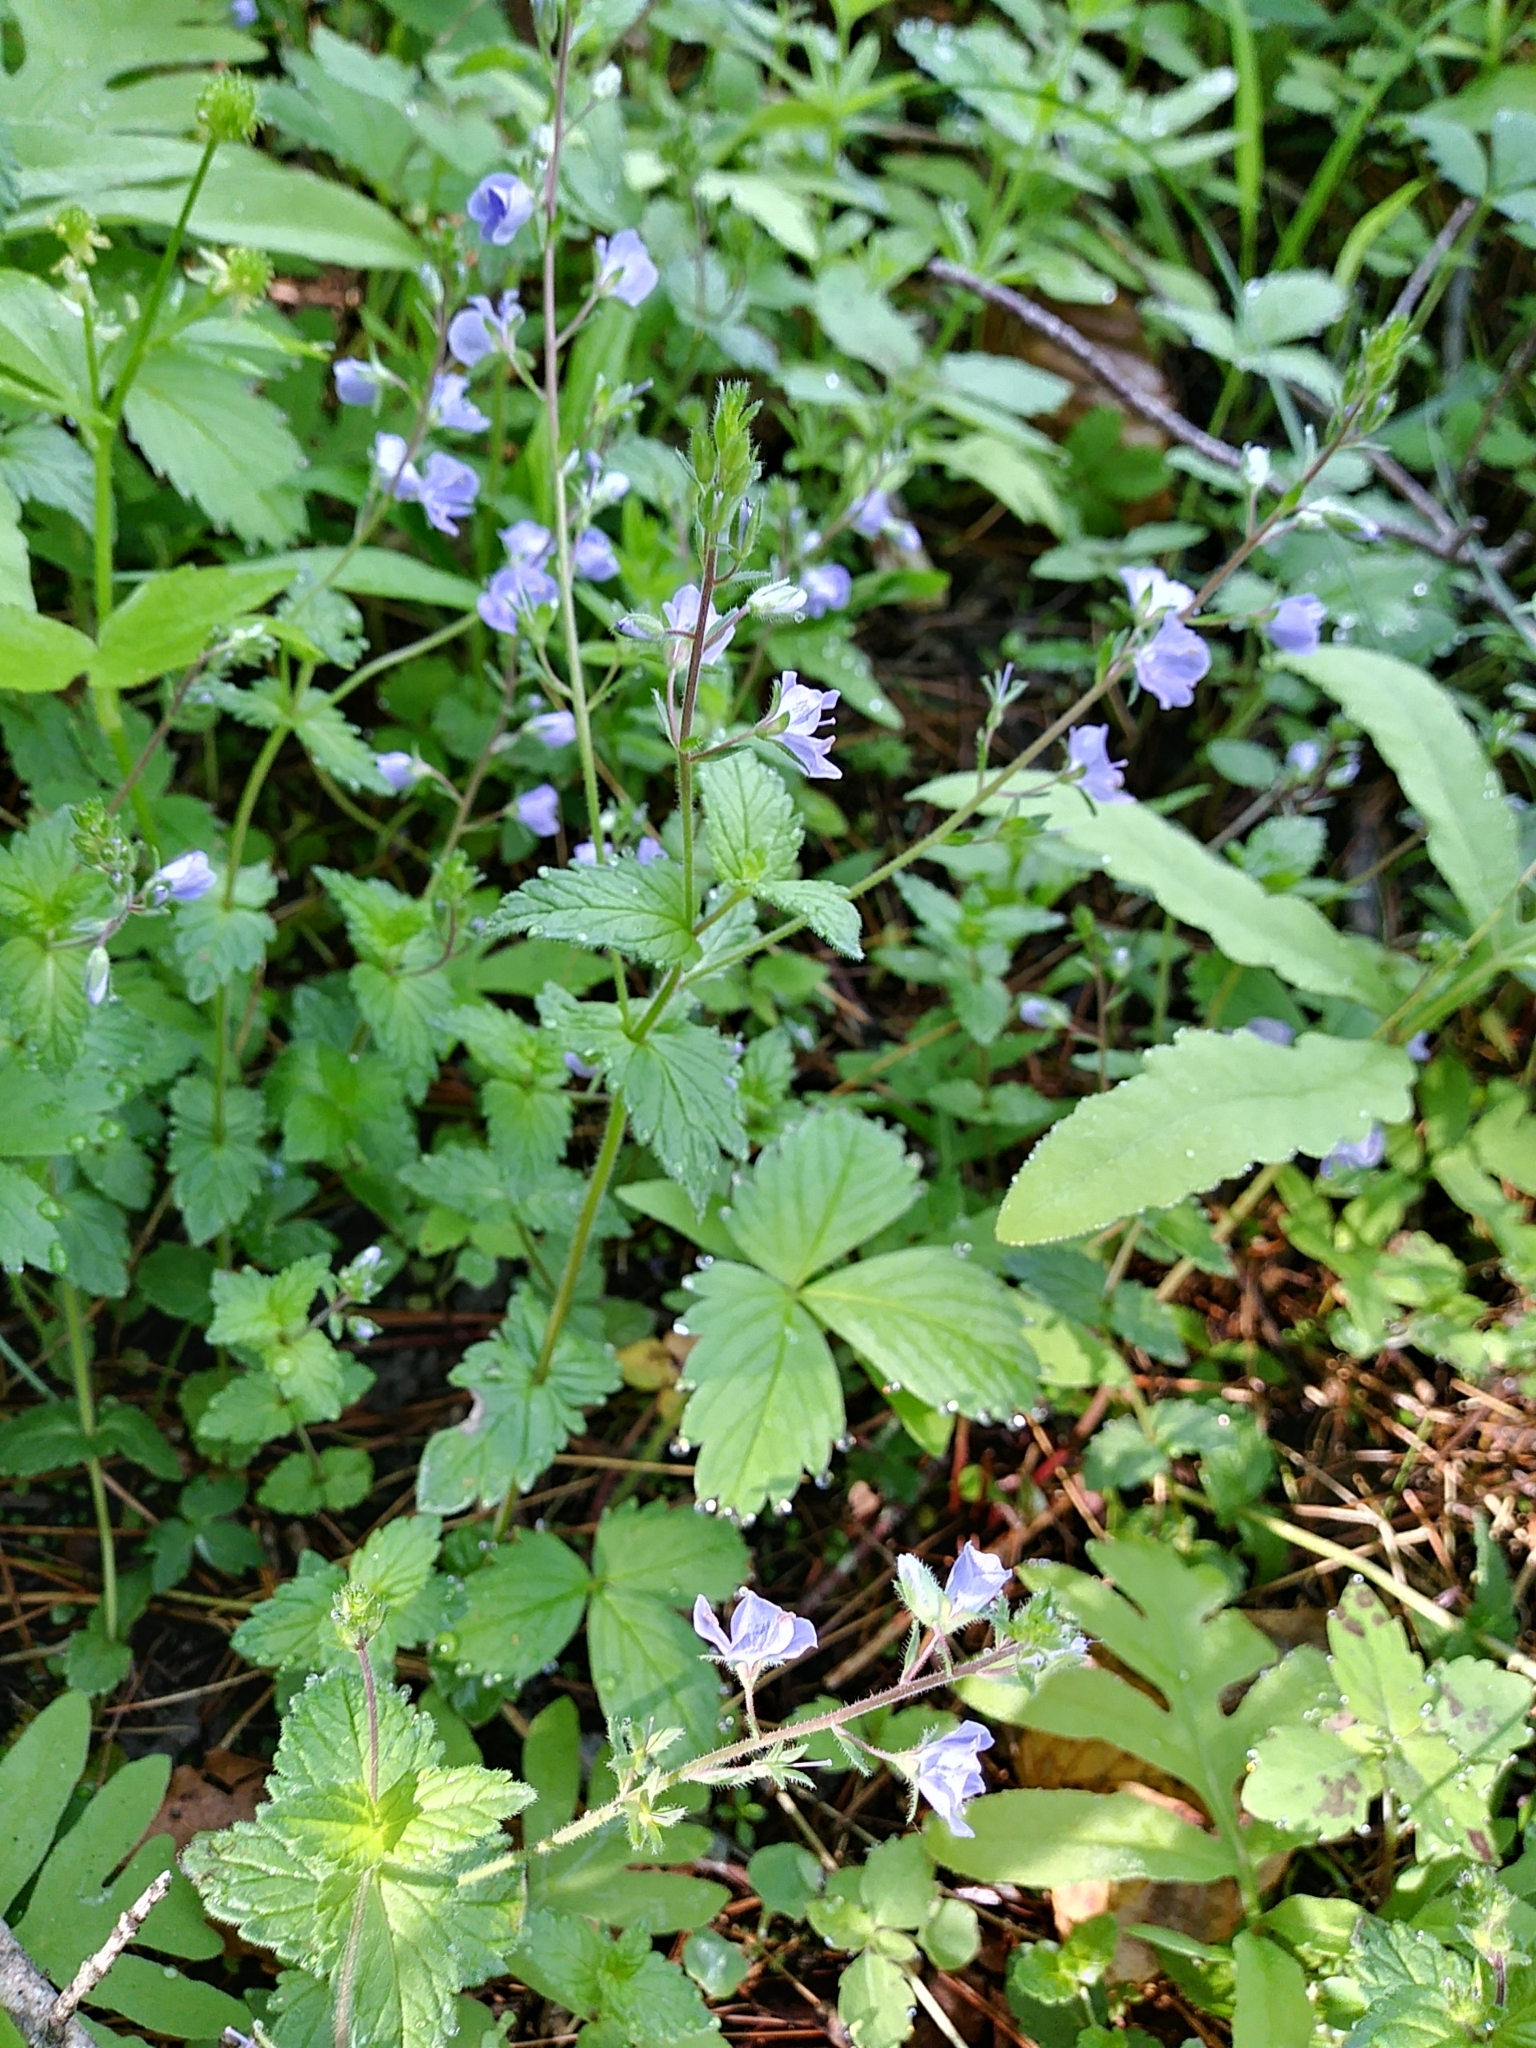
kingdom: Plantae
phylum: Tracheophyta
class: Magnoliopsida
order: Lamiales
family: Plantaginaceae
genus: Veronica
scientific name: Veronica chamaedrys
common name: Germander speedwell
